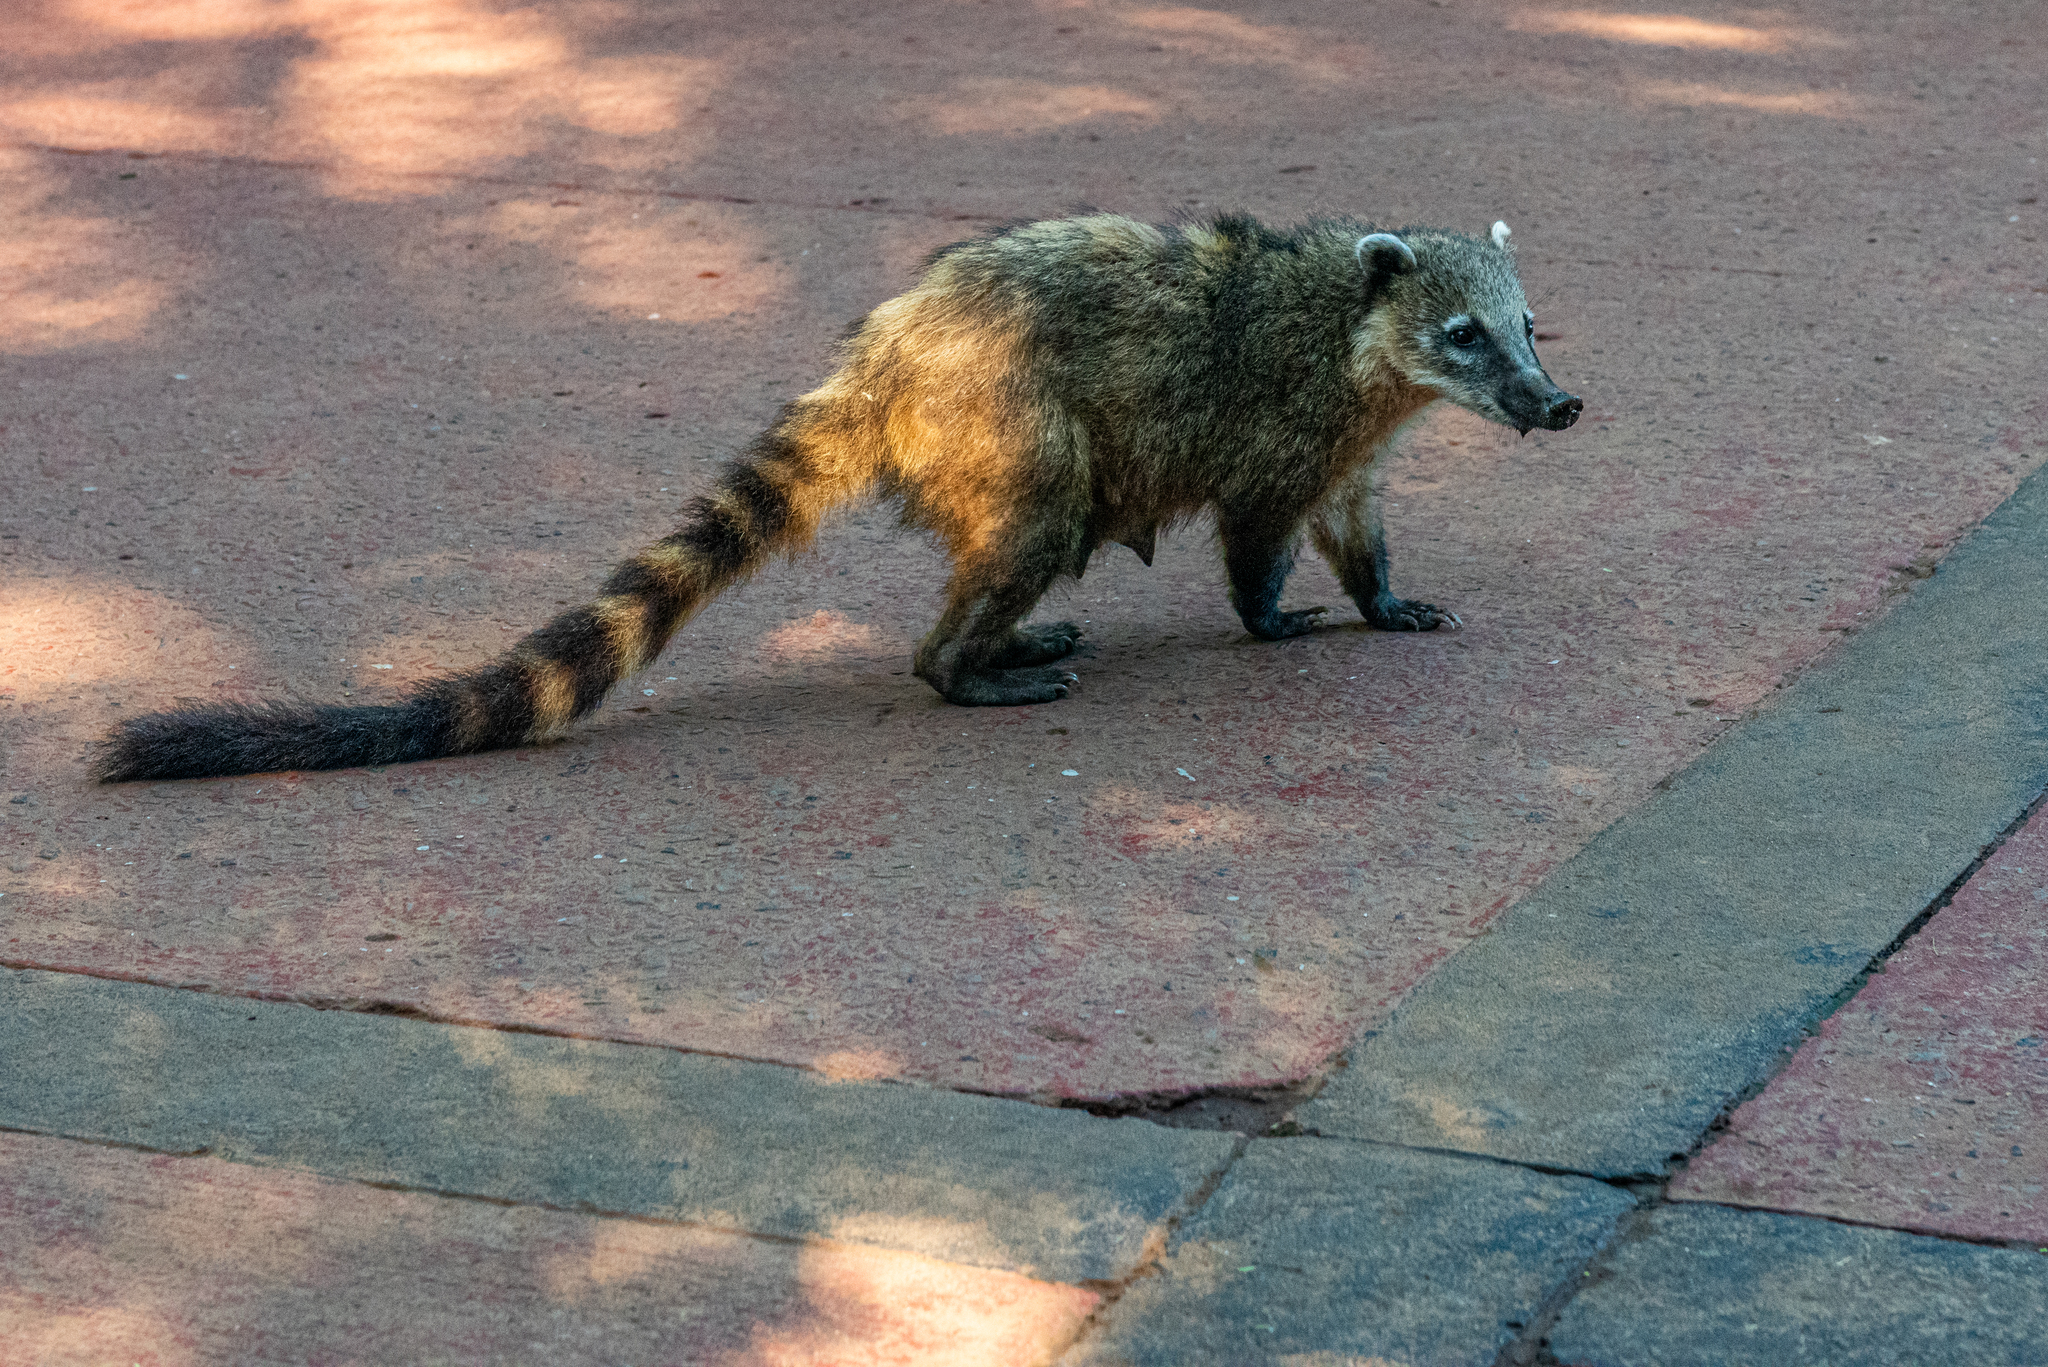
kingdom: Animalia
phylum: Chordata
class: Mammalia
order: Carnivora
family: Procyonidae
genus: Nasua
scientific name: Nasua nasua
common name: South american coati
